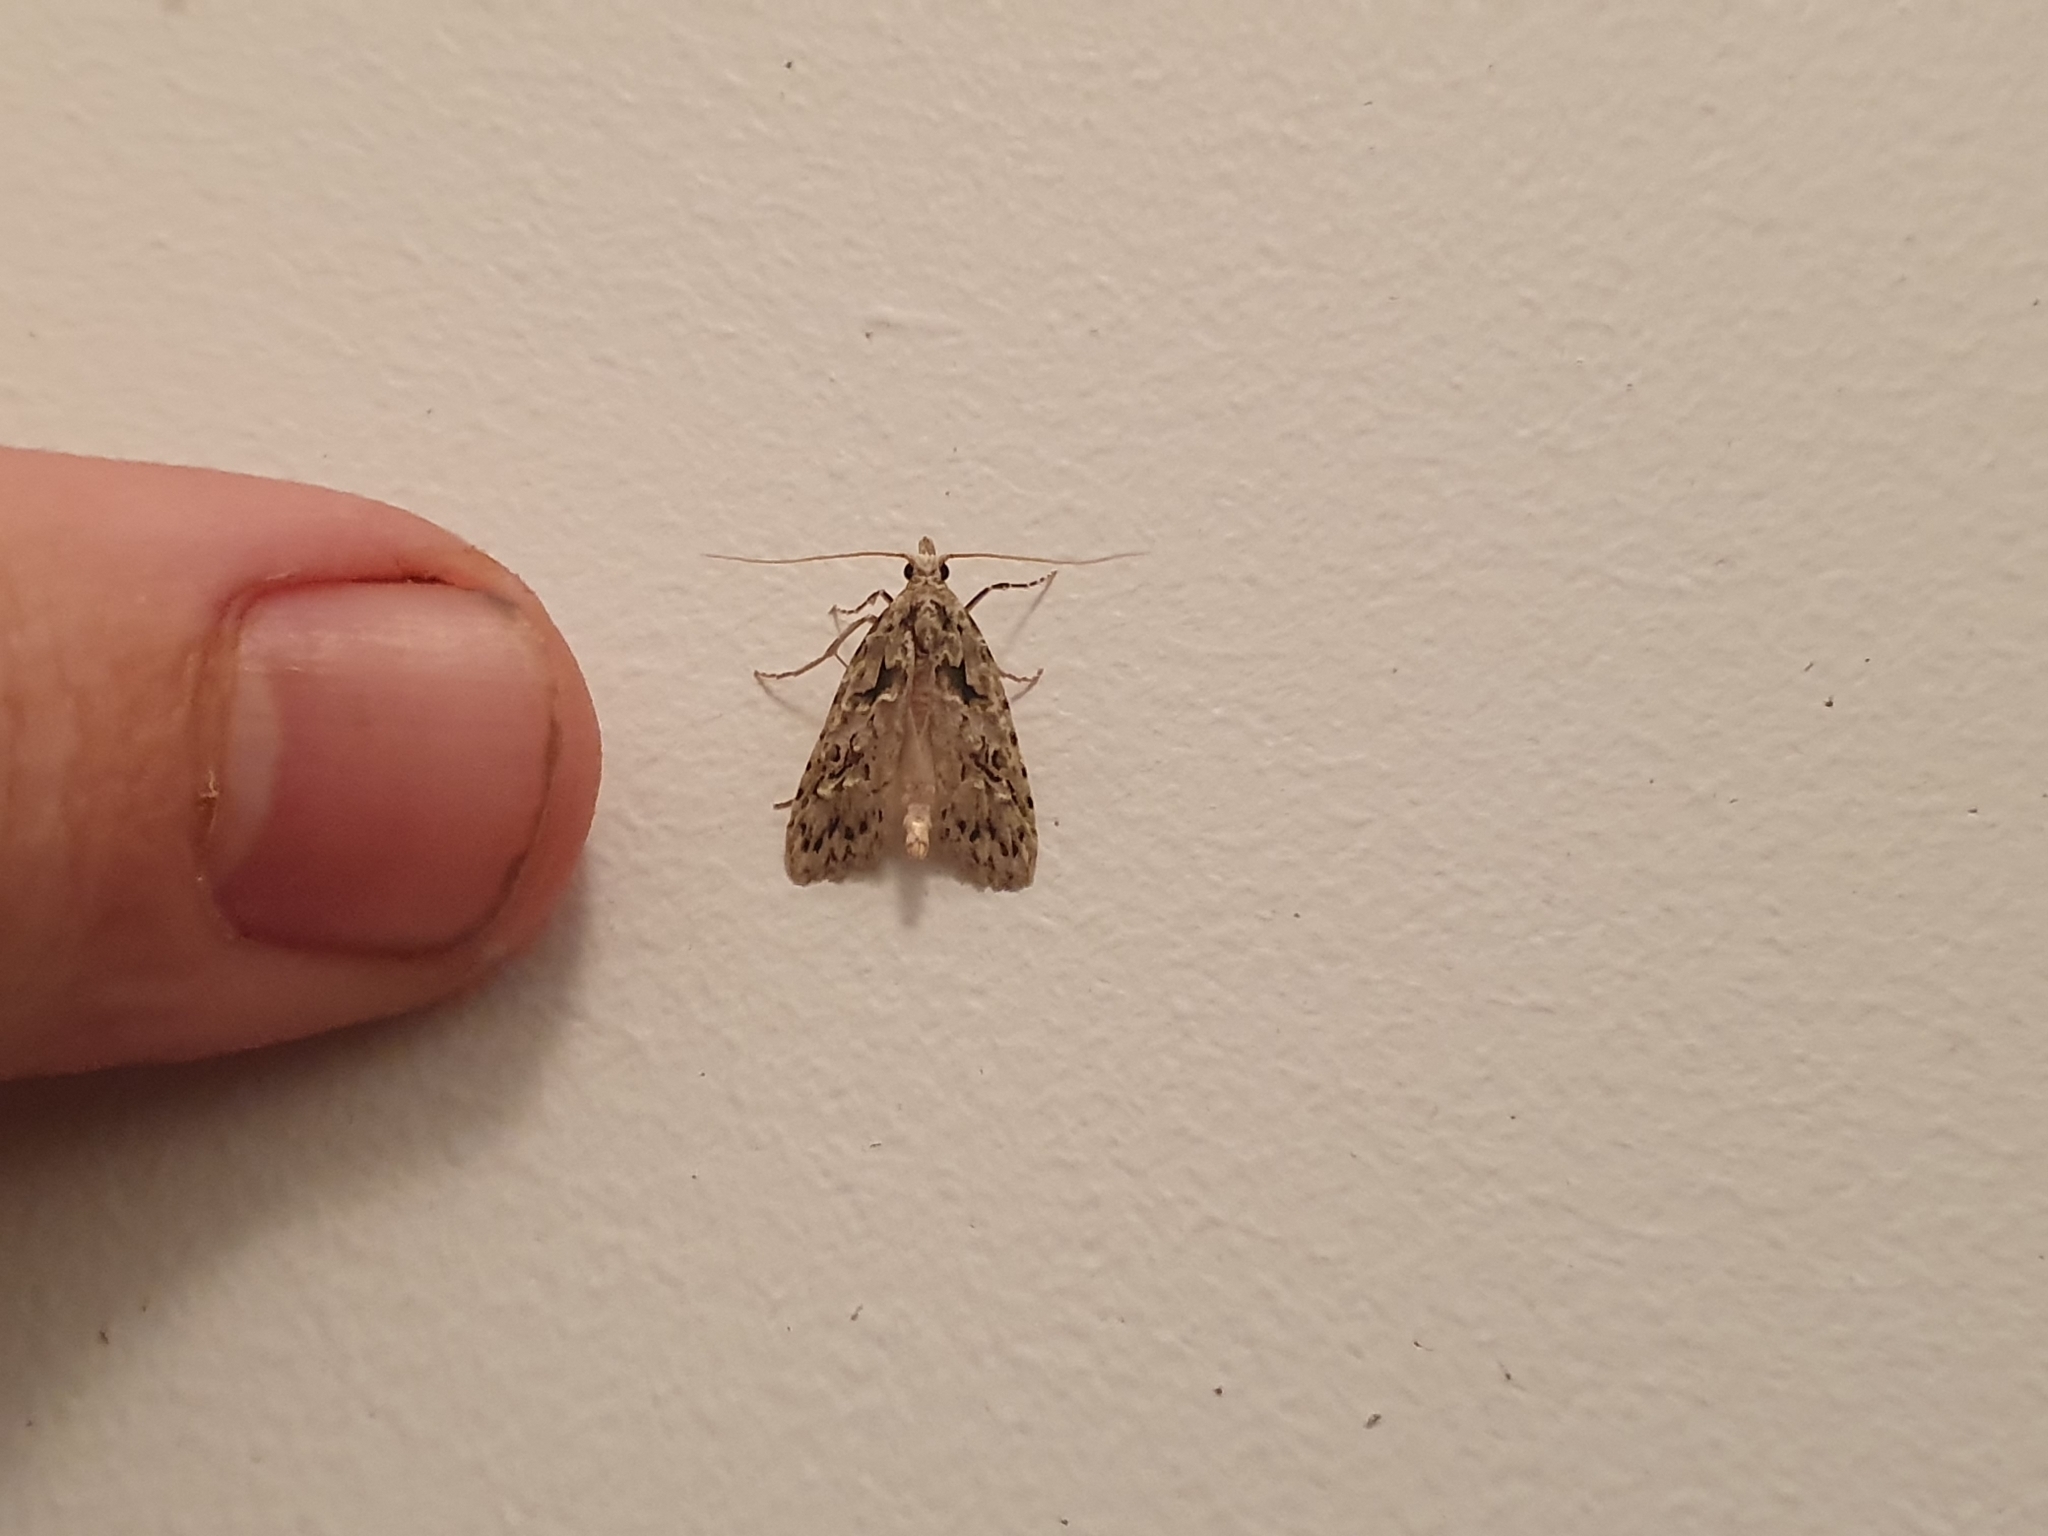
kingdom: Animalia
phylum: Arthropoda
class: Insecta
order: Lepidoptera
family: Carposinidae
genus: Carposina
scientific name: Carposina Heterocrossa eriphylla
